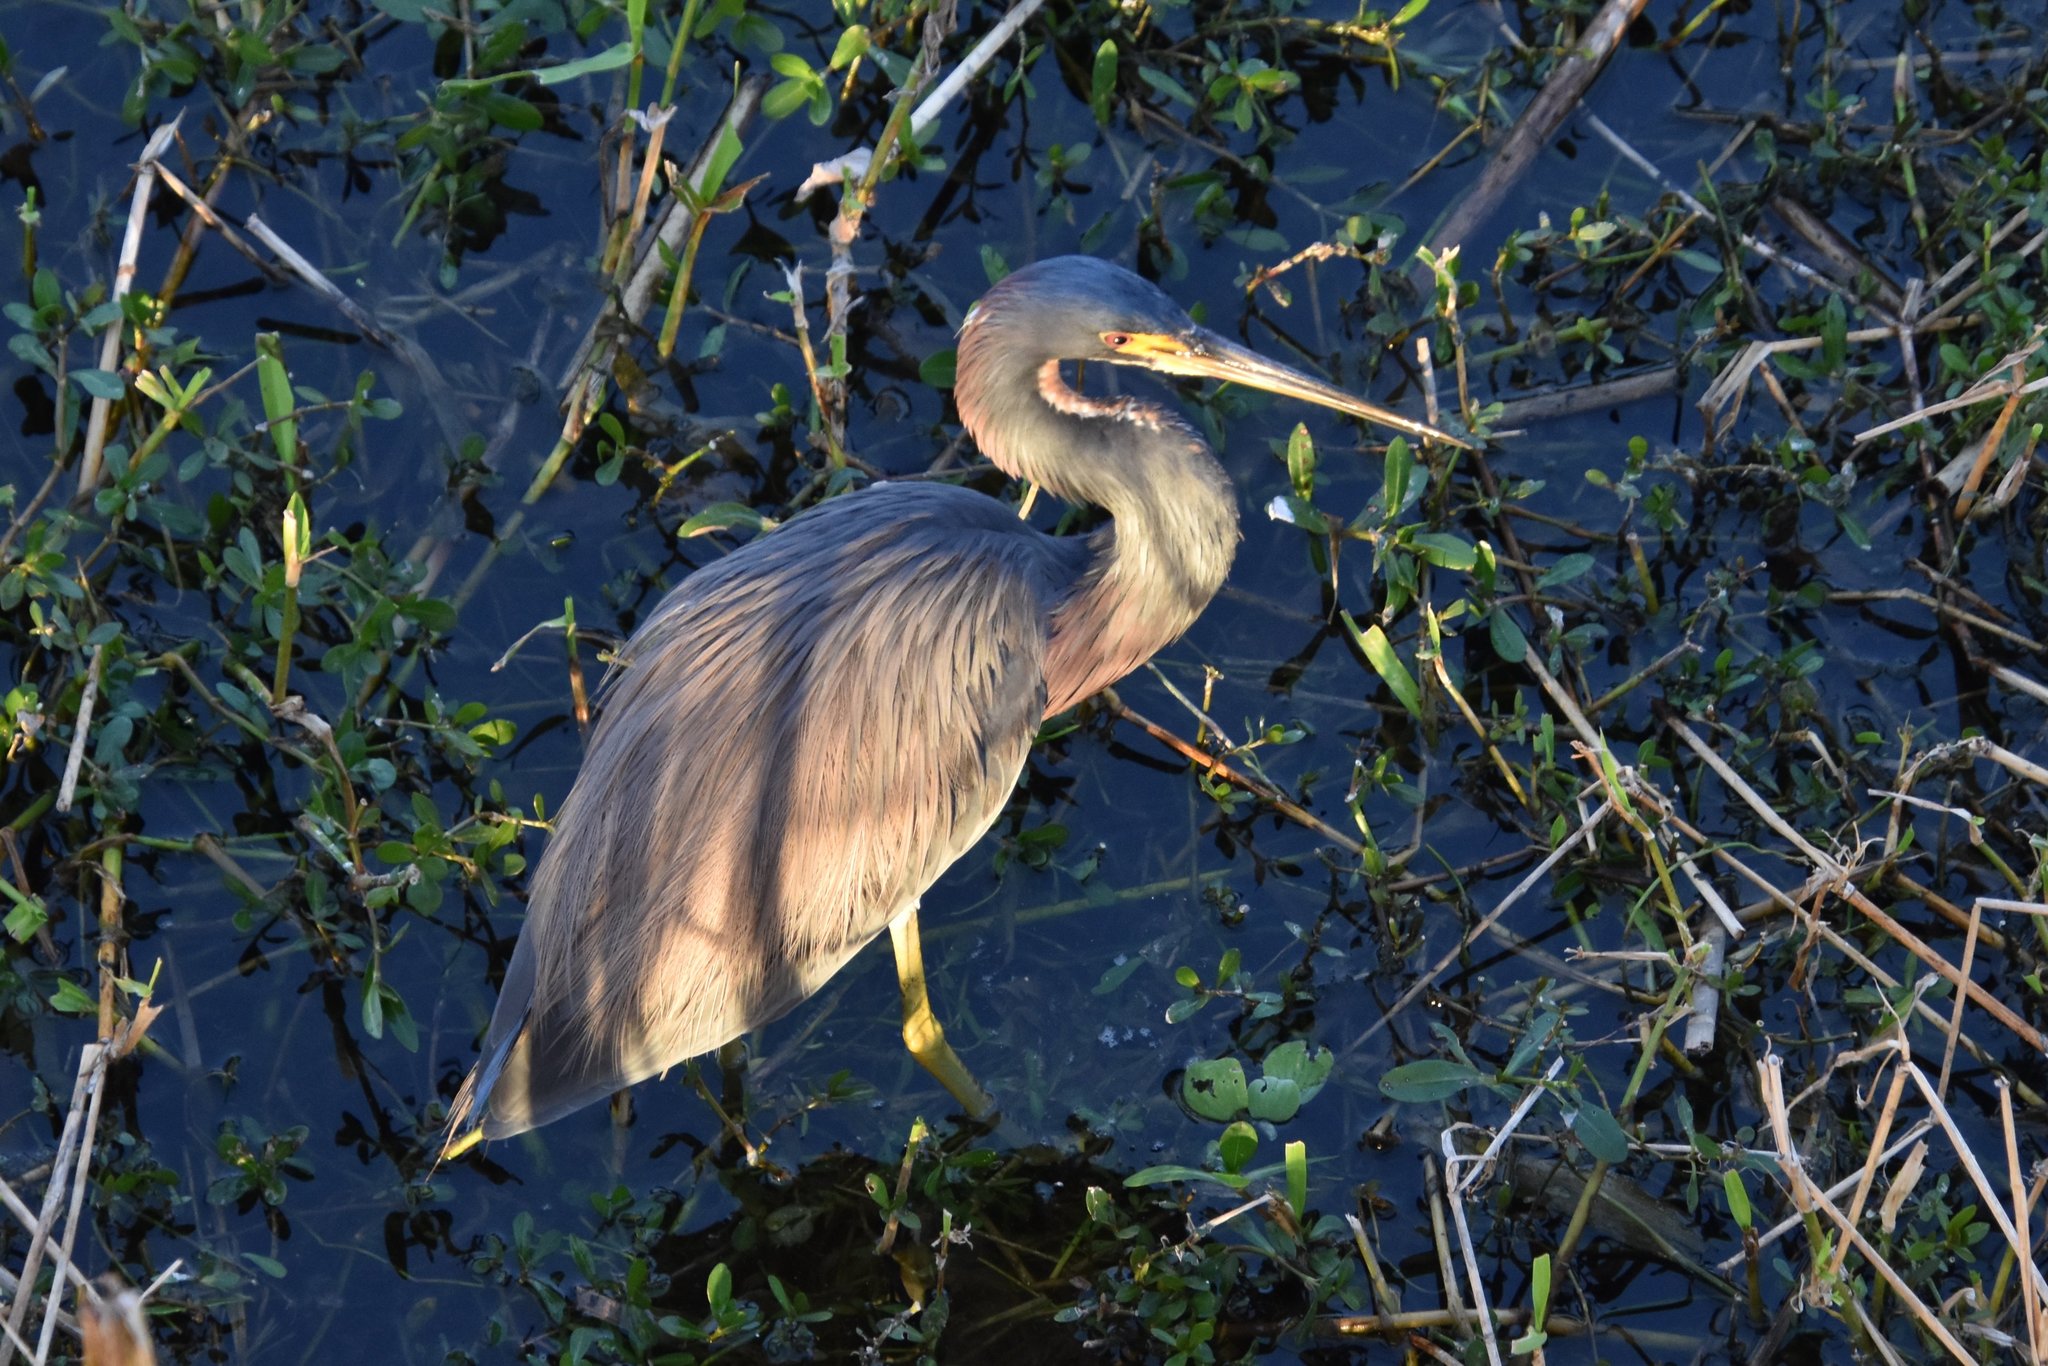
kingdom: Animalia
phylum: Chordata
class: Aves
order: Pelecaniformes
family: Ardeidae
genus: Egretta
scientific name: Egretta tricolor
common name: Tricolored heron
